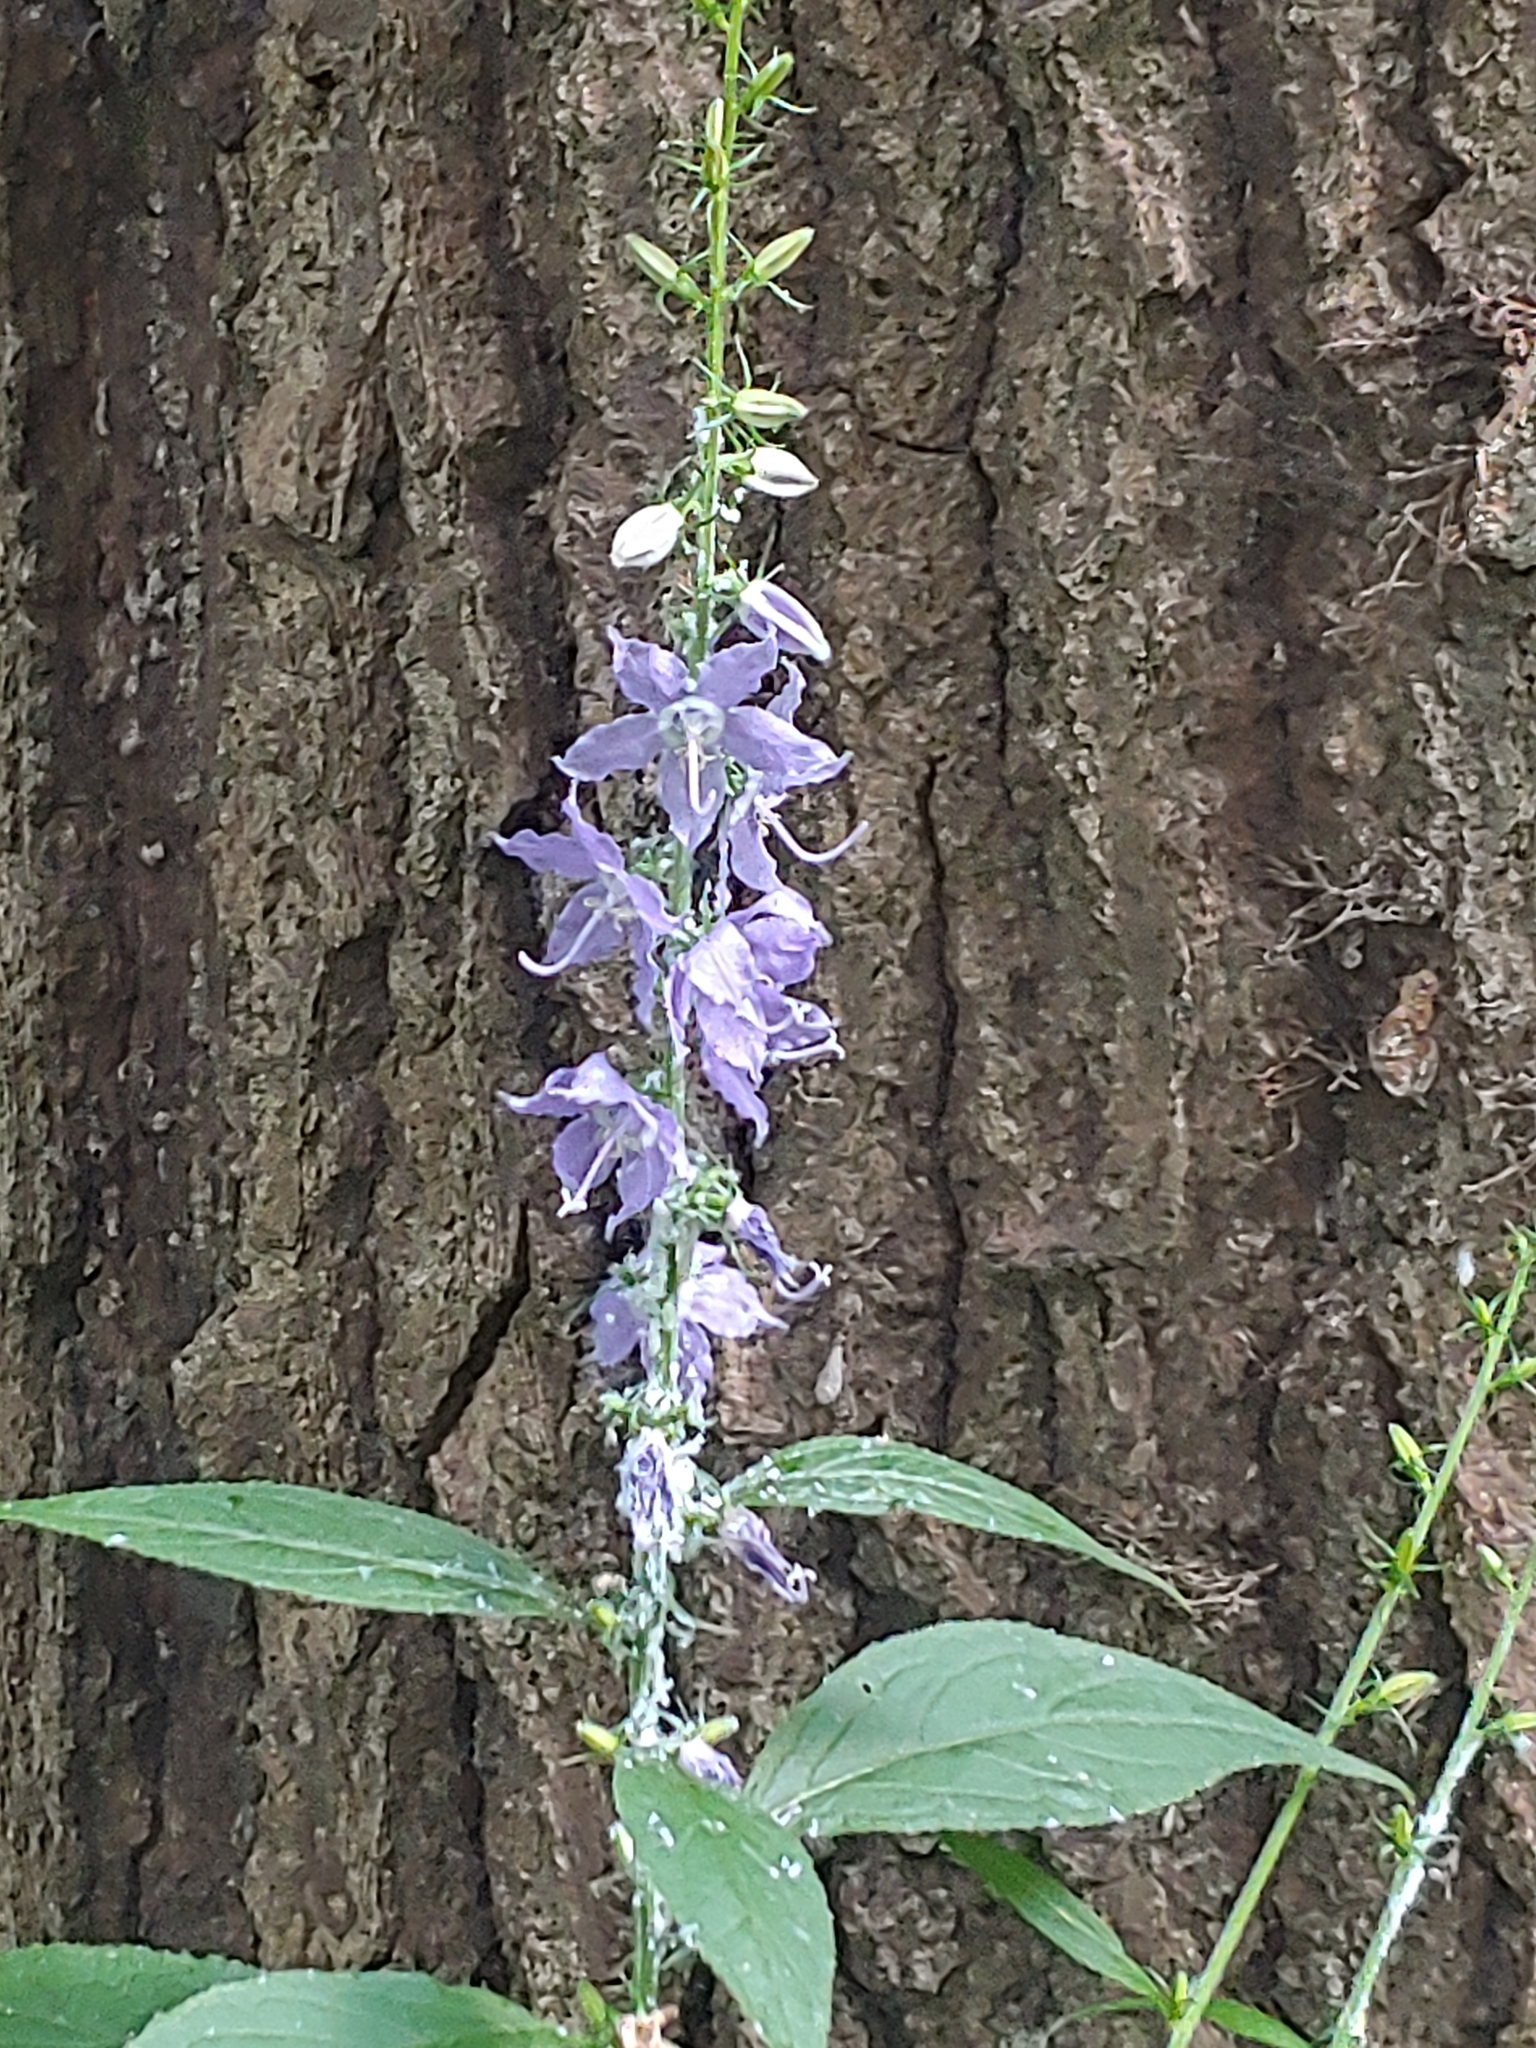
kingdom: Plantae
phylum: Tracheophyta
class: Magnoliopsida
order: Asterales
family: Campanulaceae
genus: Campanulastrum
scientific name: Campanulastrum americanum
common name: American bellflower
